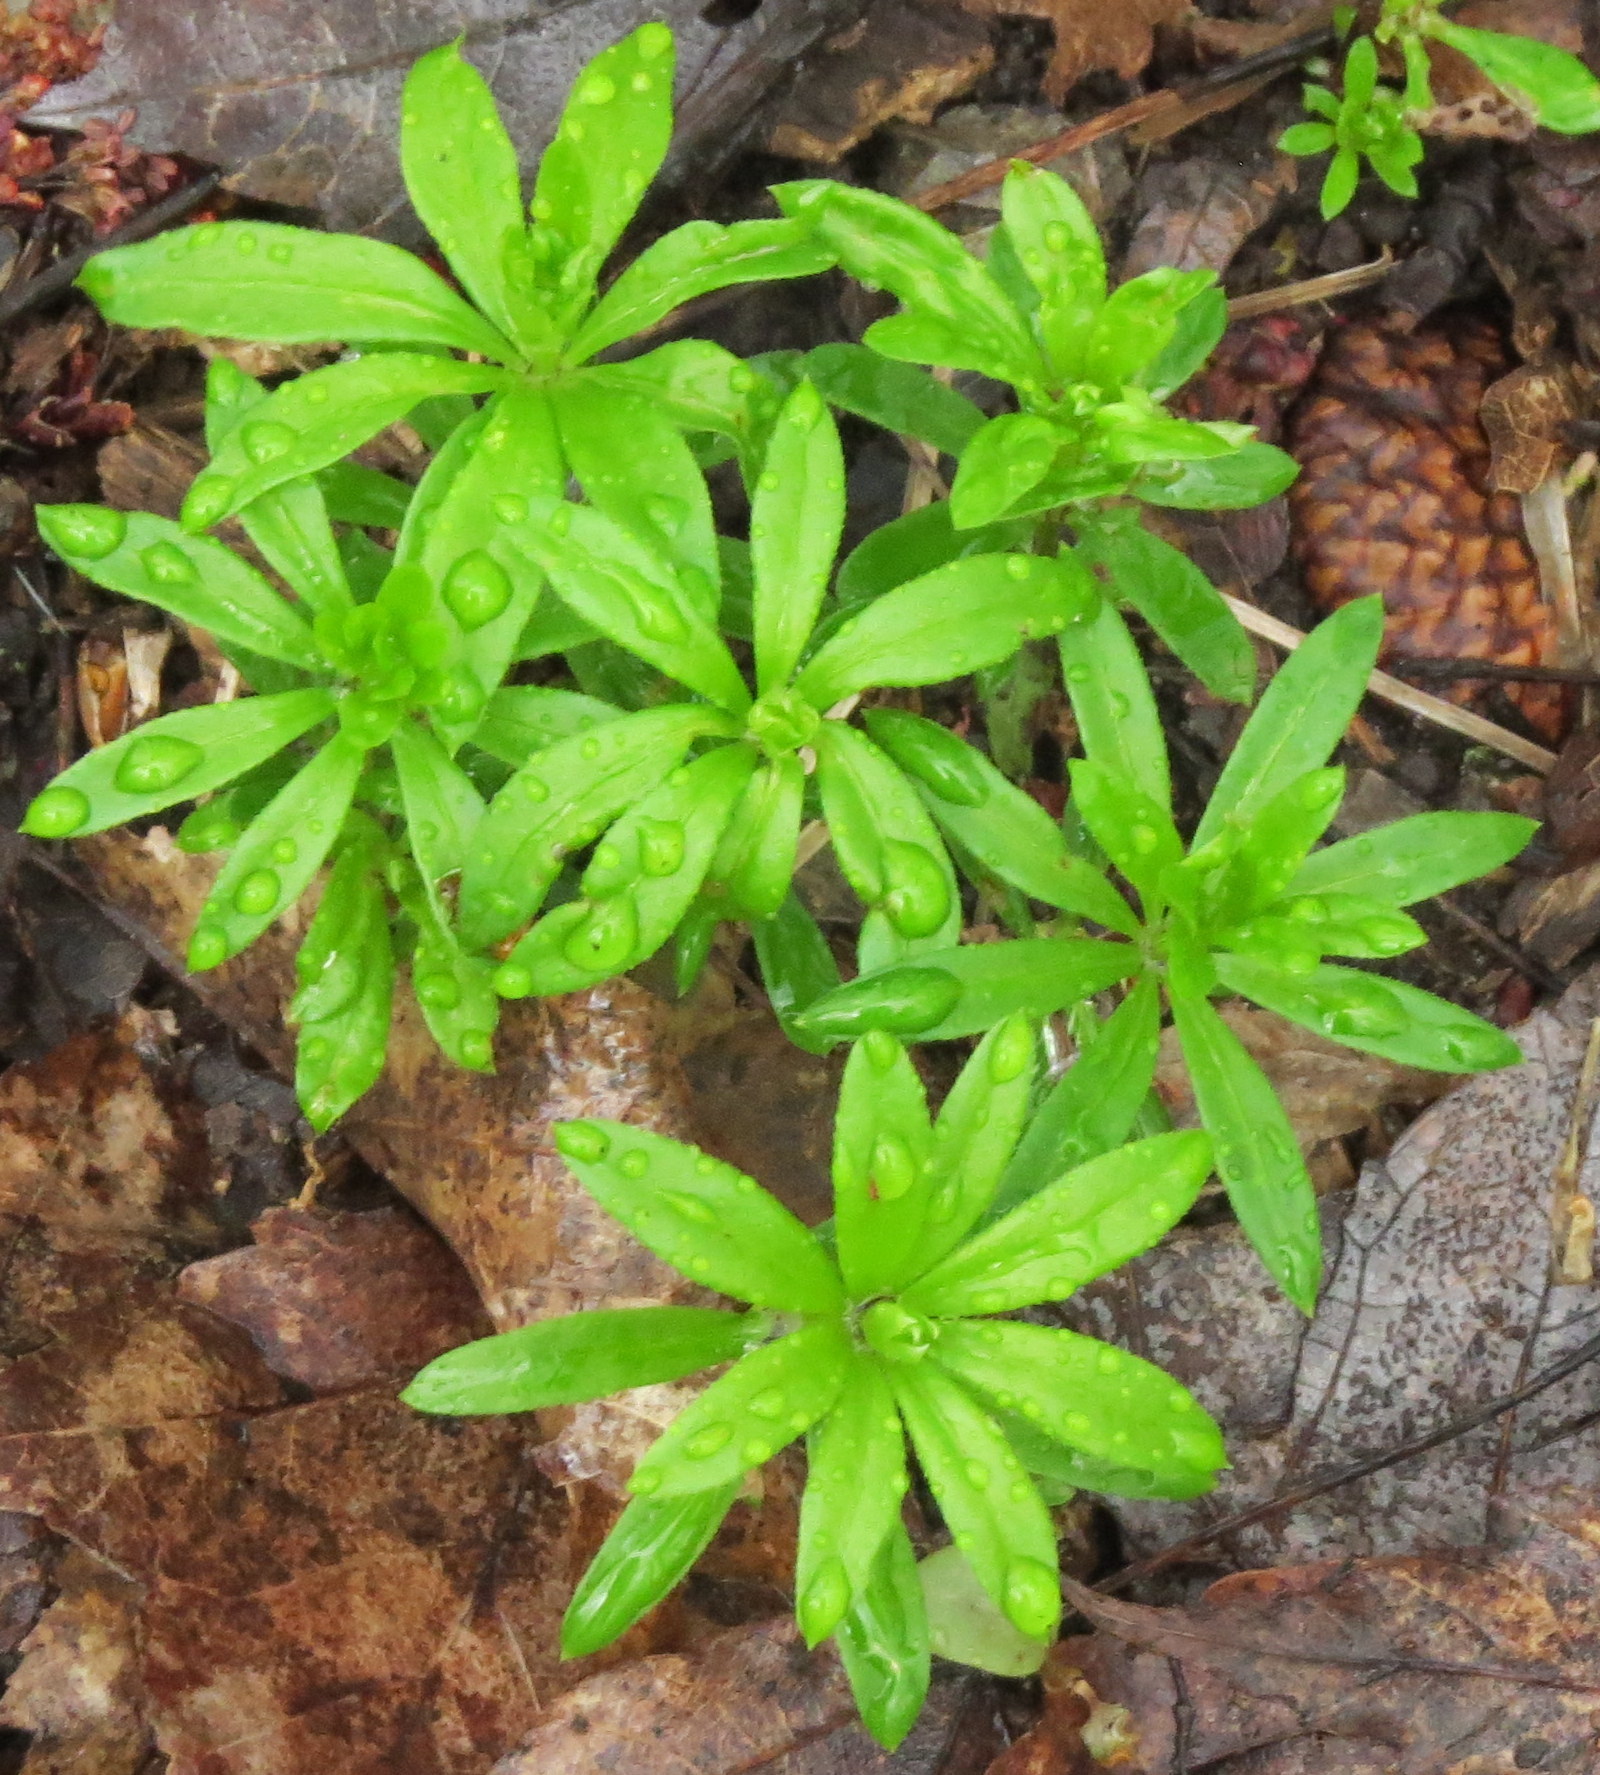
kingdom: Plantae
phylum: Tracheophyta
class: Magnoliopsida
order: Gentianales
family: Rubiaceae
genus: Galium
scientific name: Galium odoratum
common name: Sweet woodruff
